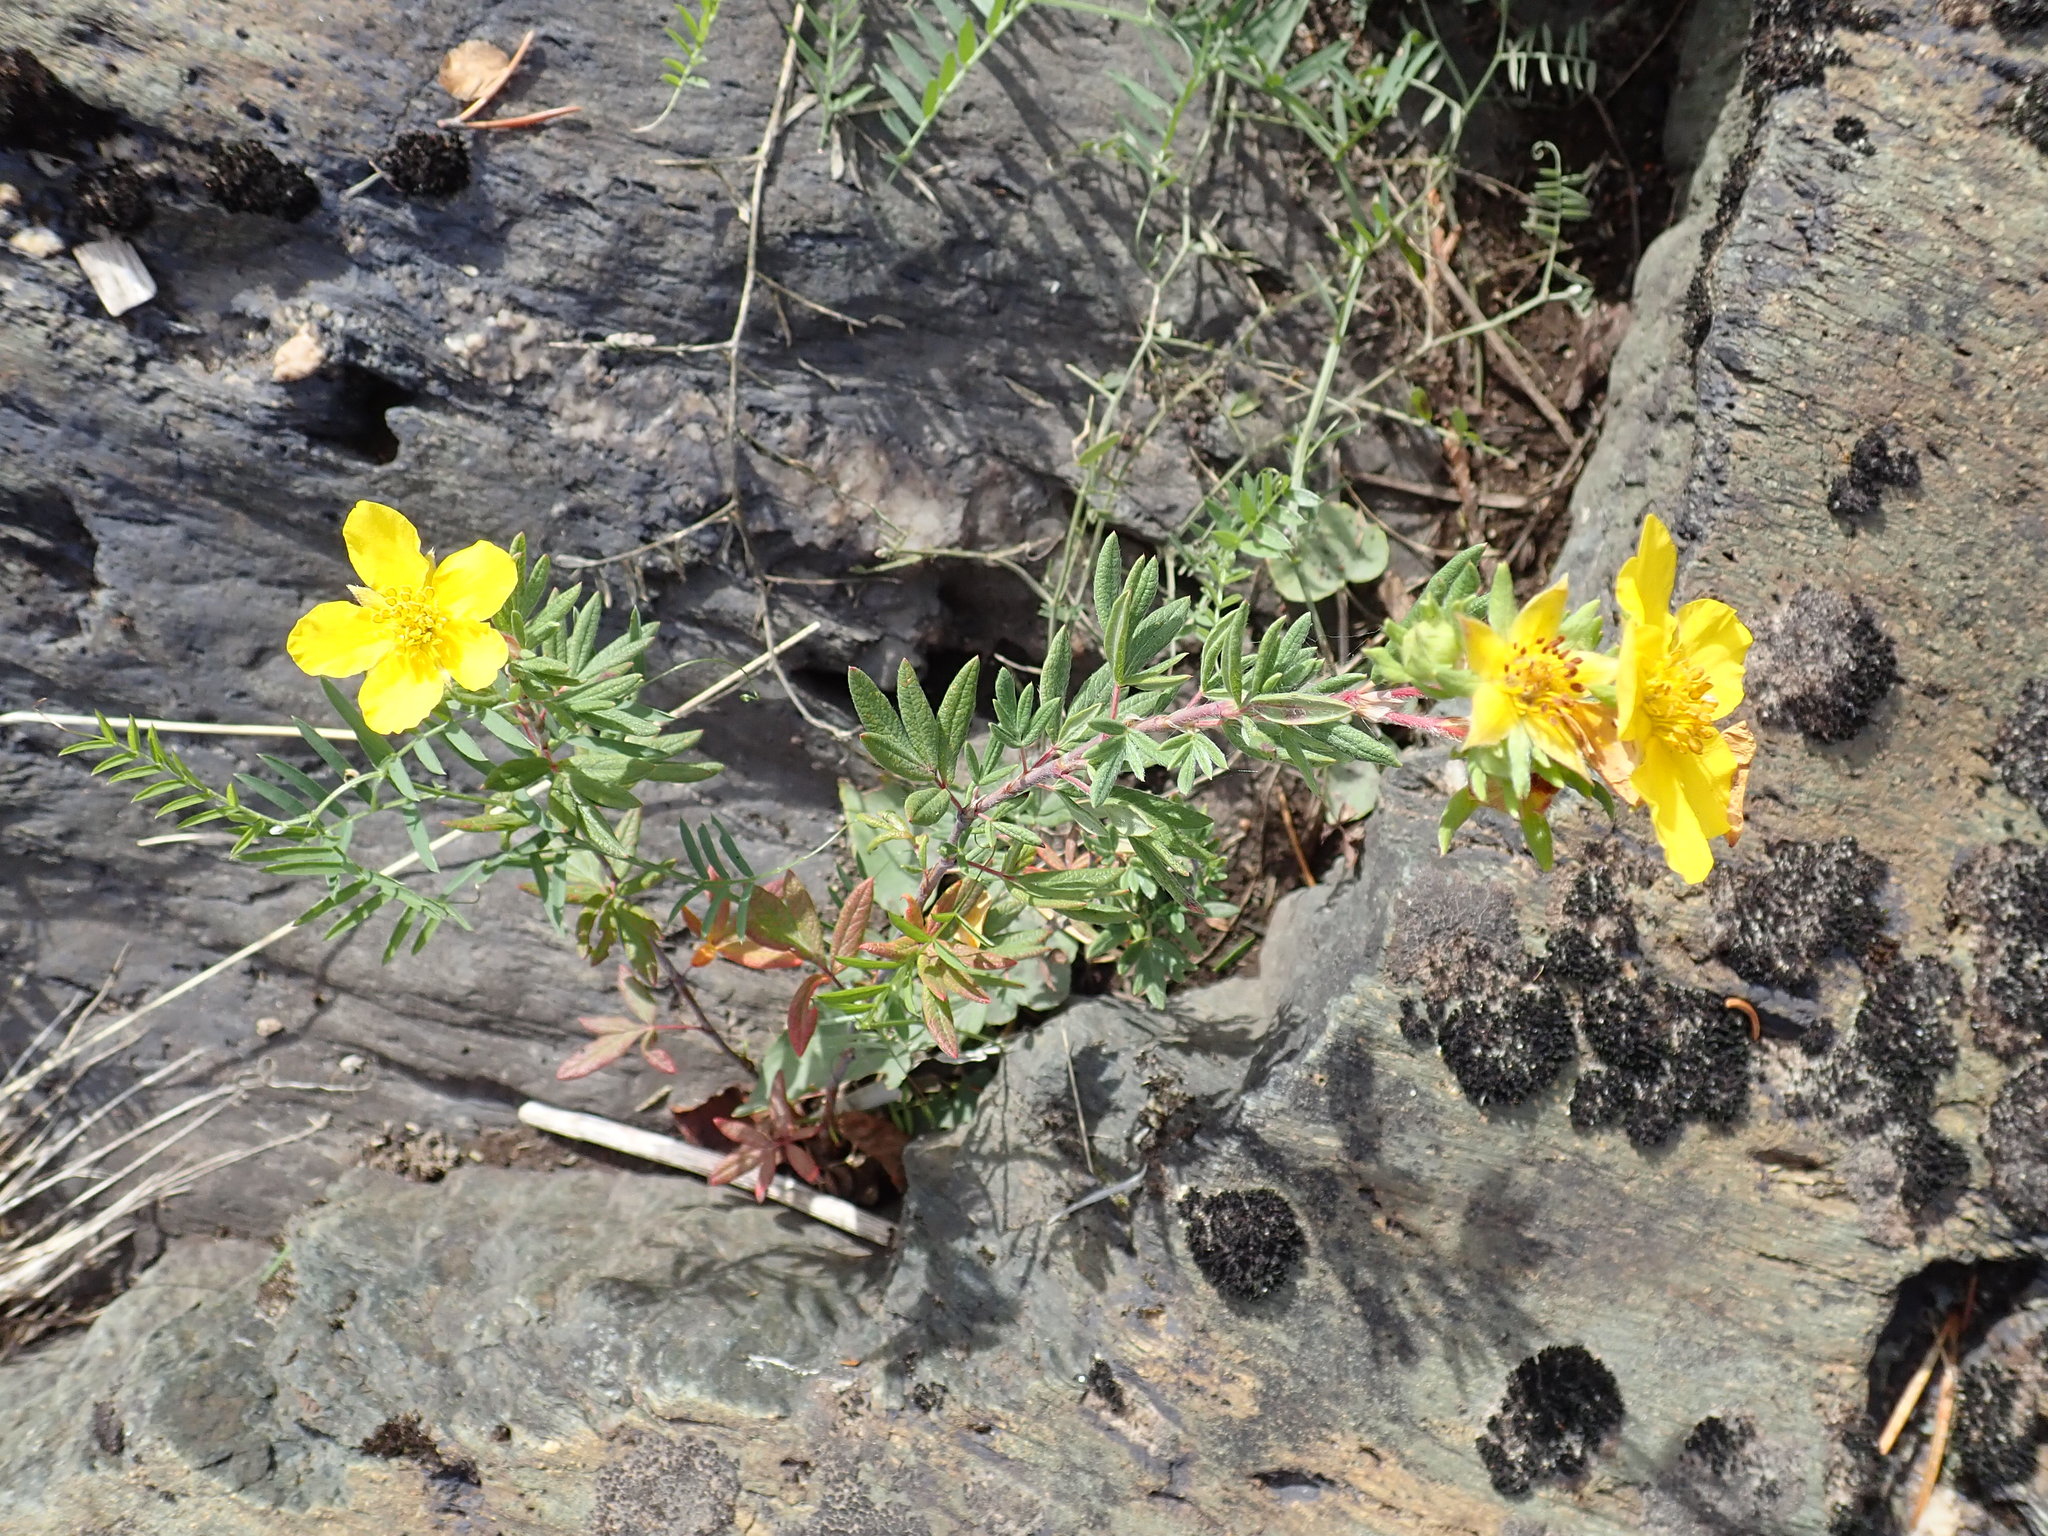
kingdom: Plantae
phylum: Tracheophyta
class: Magnoliopsida
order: Rosales
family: Rosaceae
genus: Dasiphora
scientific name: Dasiphora fruticosa
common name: Shrubby cinquefoil
